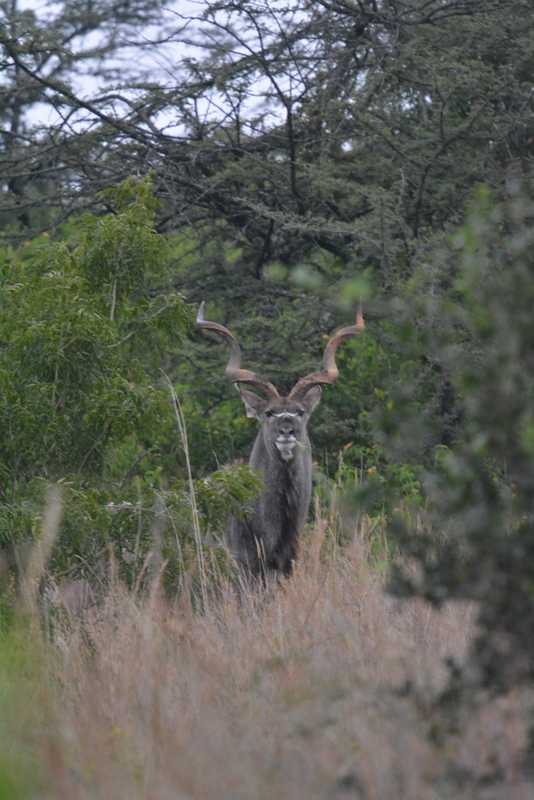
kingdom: Animalia
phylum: Chordata
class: Mammalia
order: Artiodactyla
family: Bovidae
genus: Tragelaphus
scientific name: Tragelaphus strepsiceros
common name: Greater kudu
